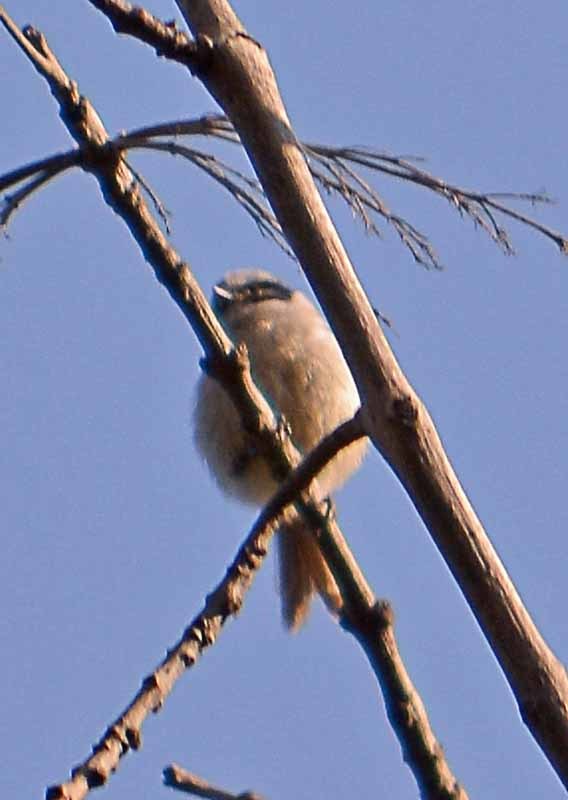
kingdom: Animalia
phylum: Chordata
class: Aves
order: Passeriformes
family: Aegithalidae
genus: Psaltriparus
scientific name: Psaltriparus minimus
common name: American bushtit
